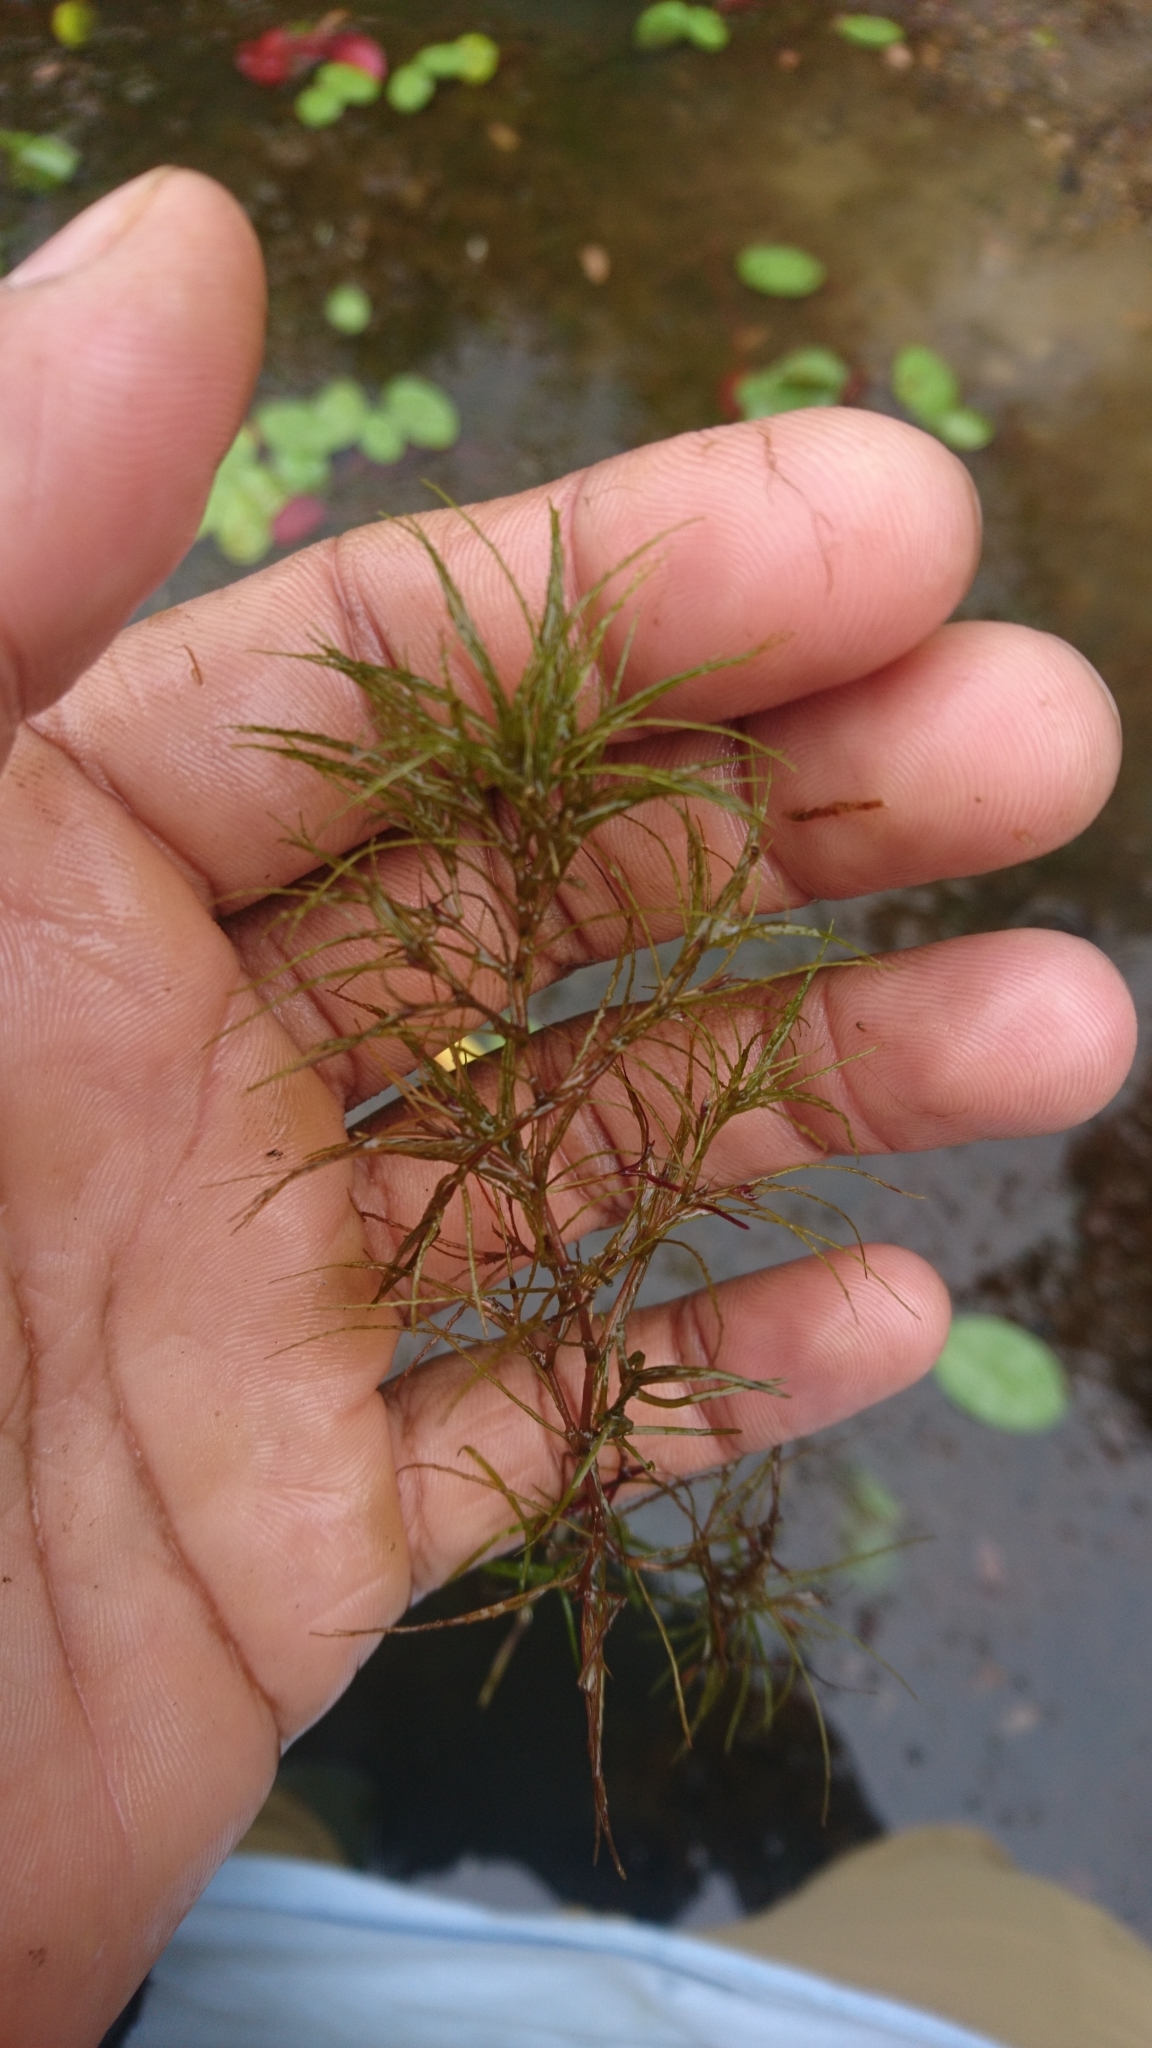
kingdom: Plantae
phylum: Tracheophyta
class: Liliopsida
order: Alismatales
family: Hydrocharitaceae
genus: Najas
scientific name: Najas minor
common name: Brittle naiad
